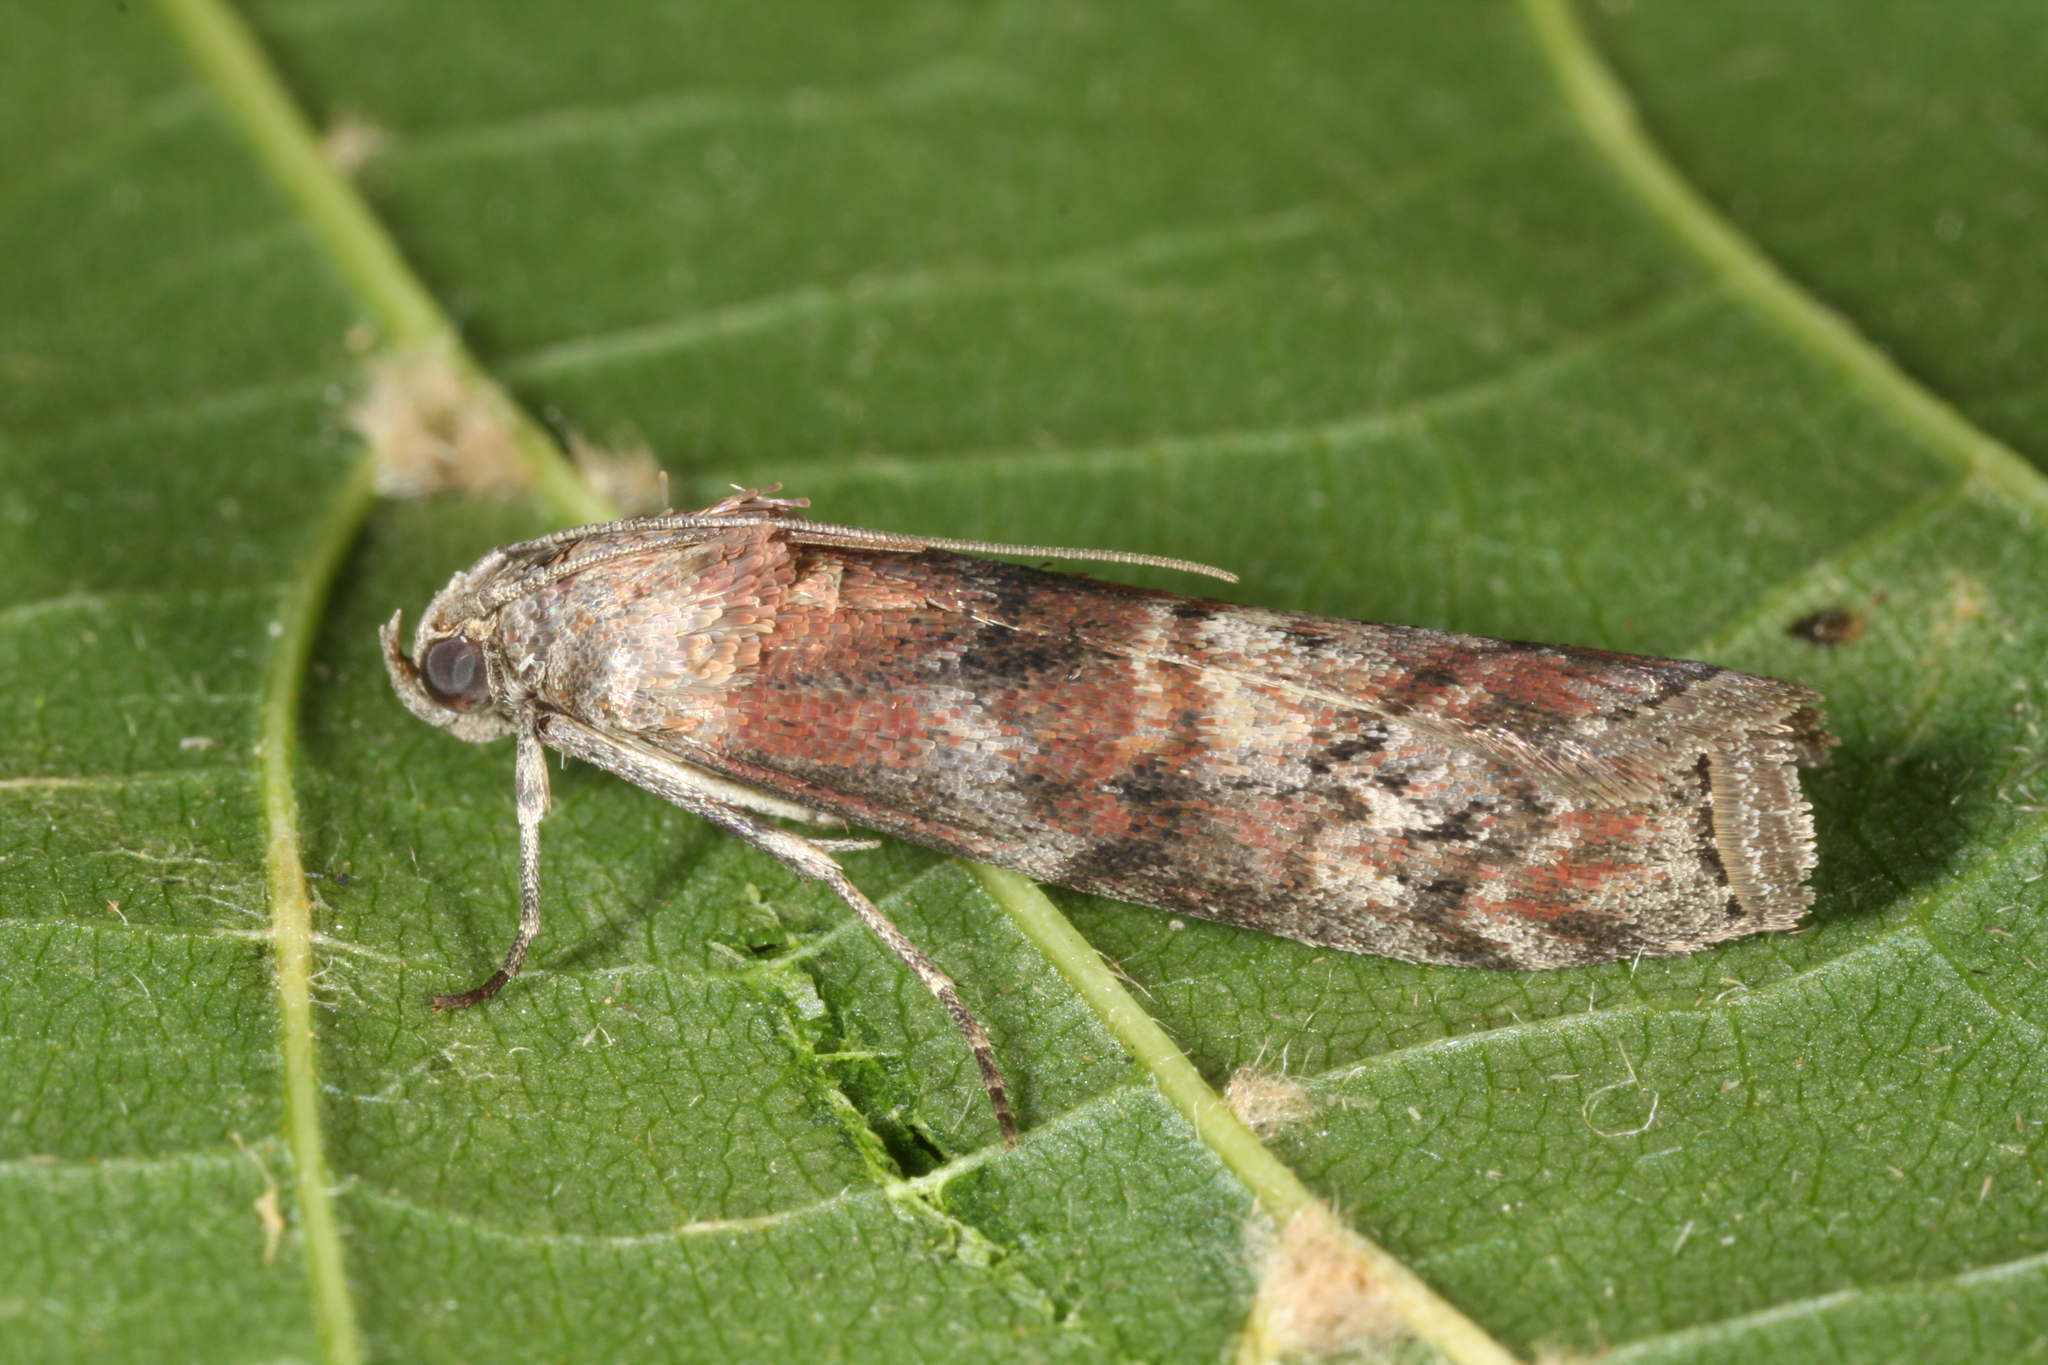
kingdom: Animalia
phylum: Arthropoda
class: Insecta
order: Lepidoptera
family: Pyralidae
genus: Phycita
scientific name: Phycita roborella
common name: Dotted oak knot-horn
